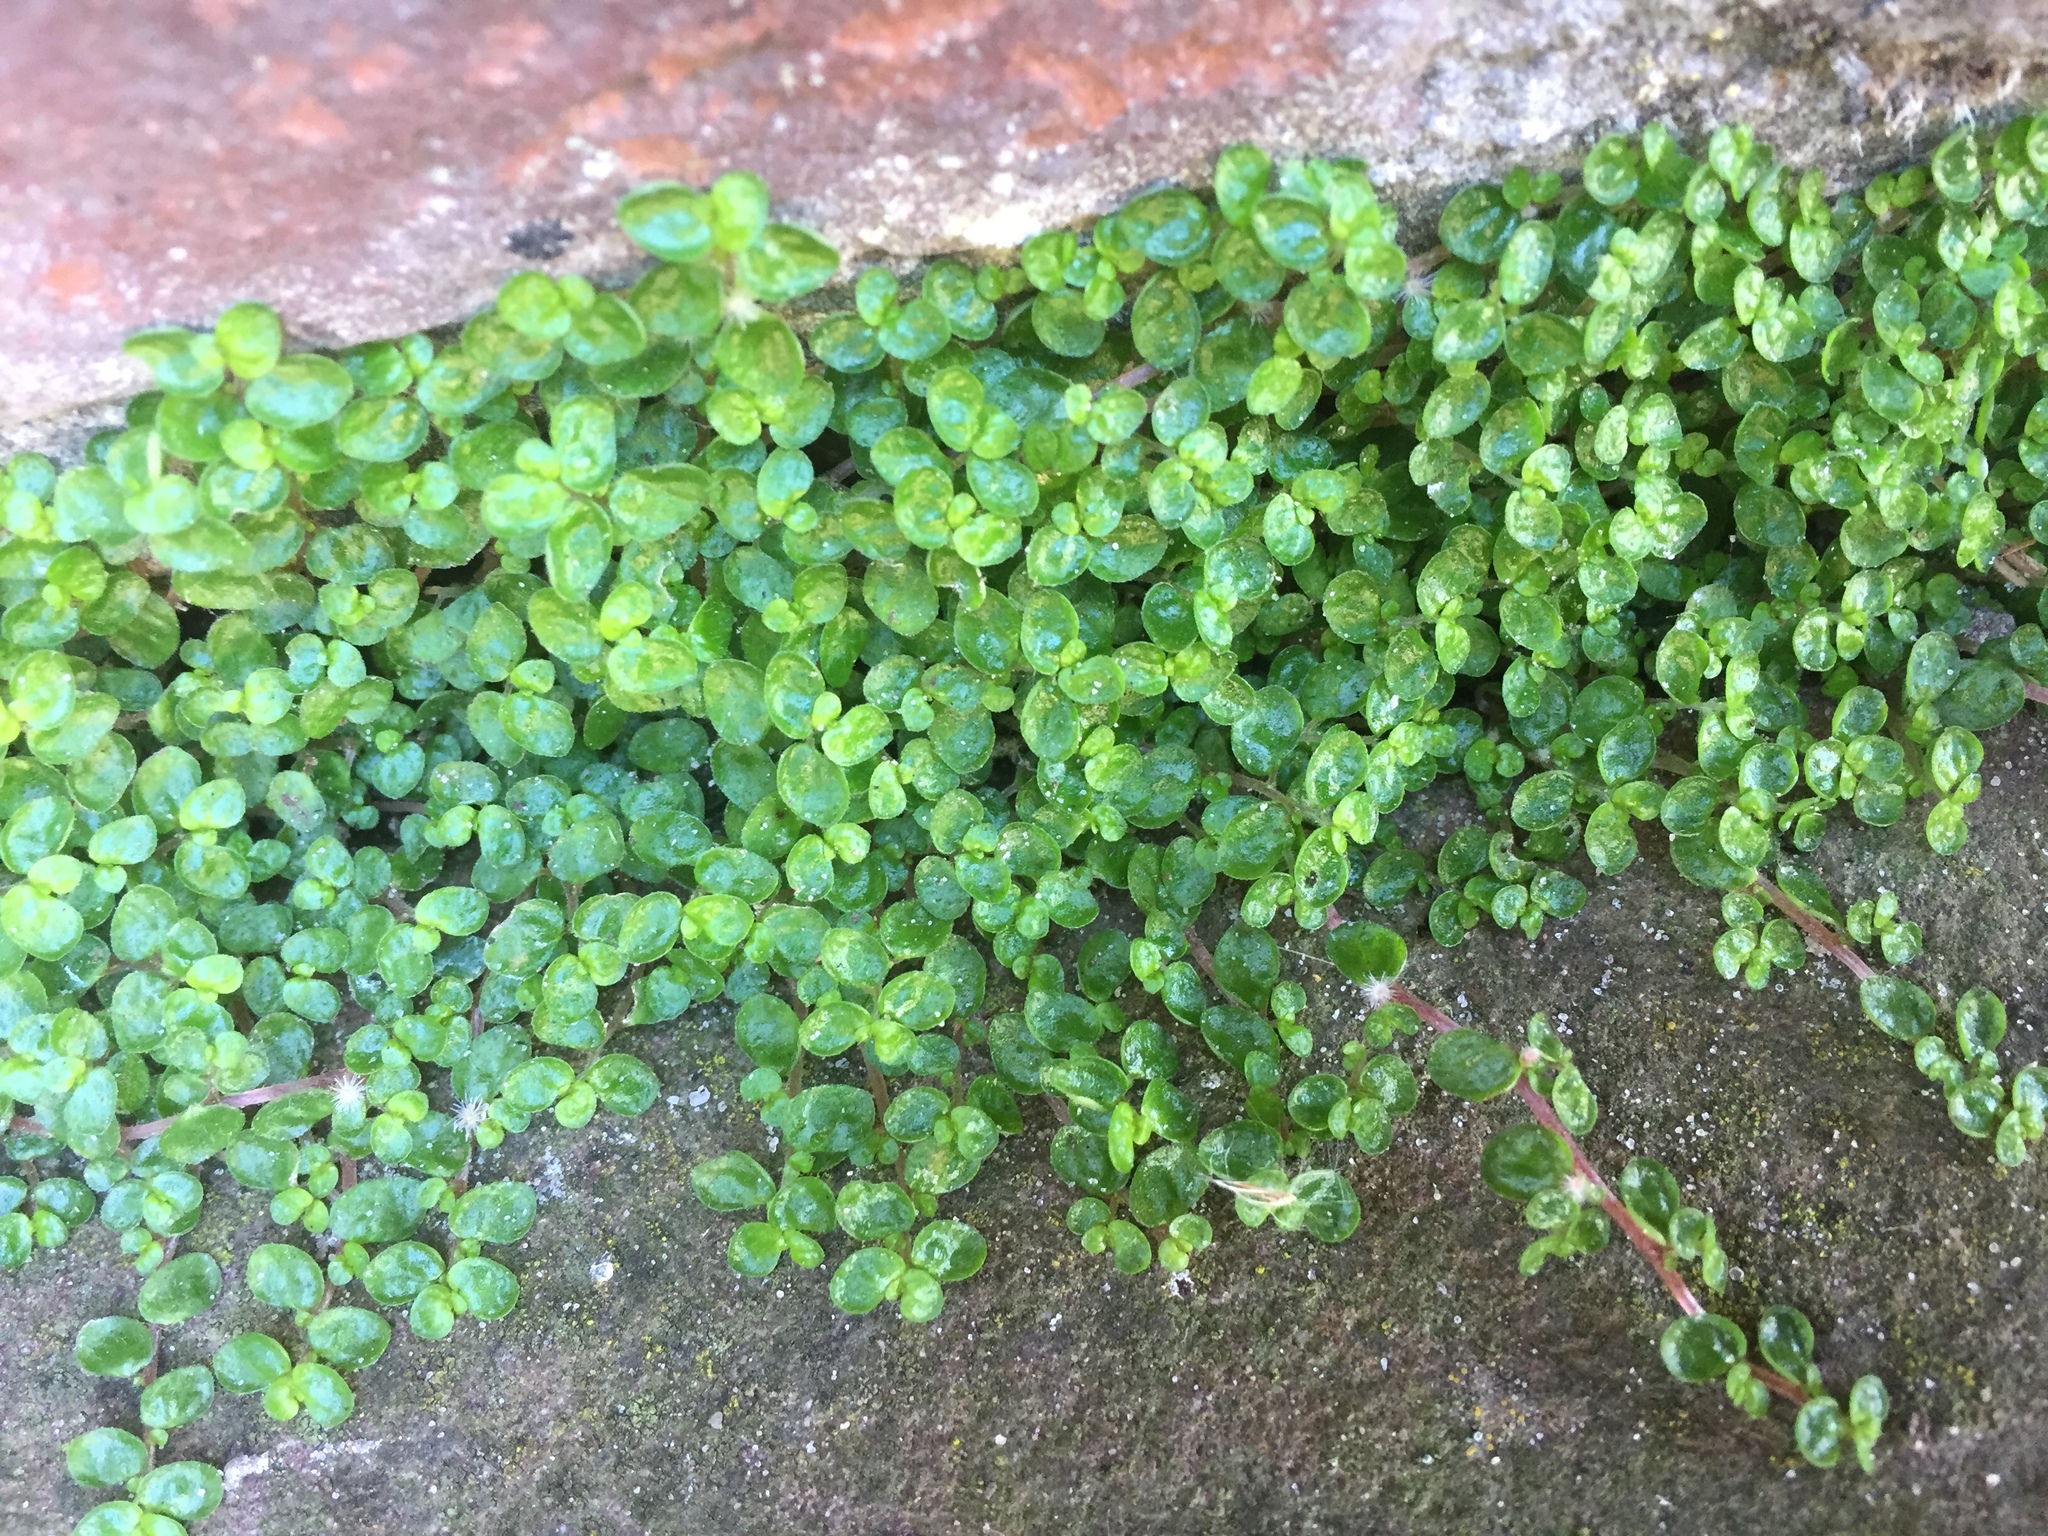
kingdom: Plantae
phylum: Tracheophyta
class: Magnoliopsida
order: Rosales
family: Urticaceae
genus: Soleirolia
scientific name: Soleirolia soleirolii
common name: Mind-your-own-business
